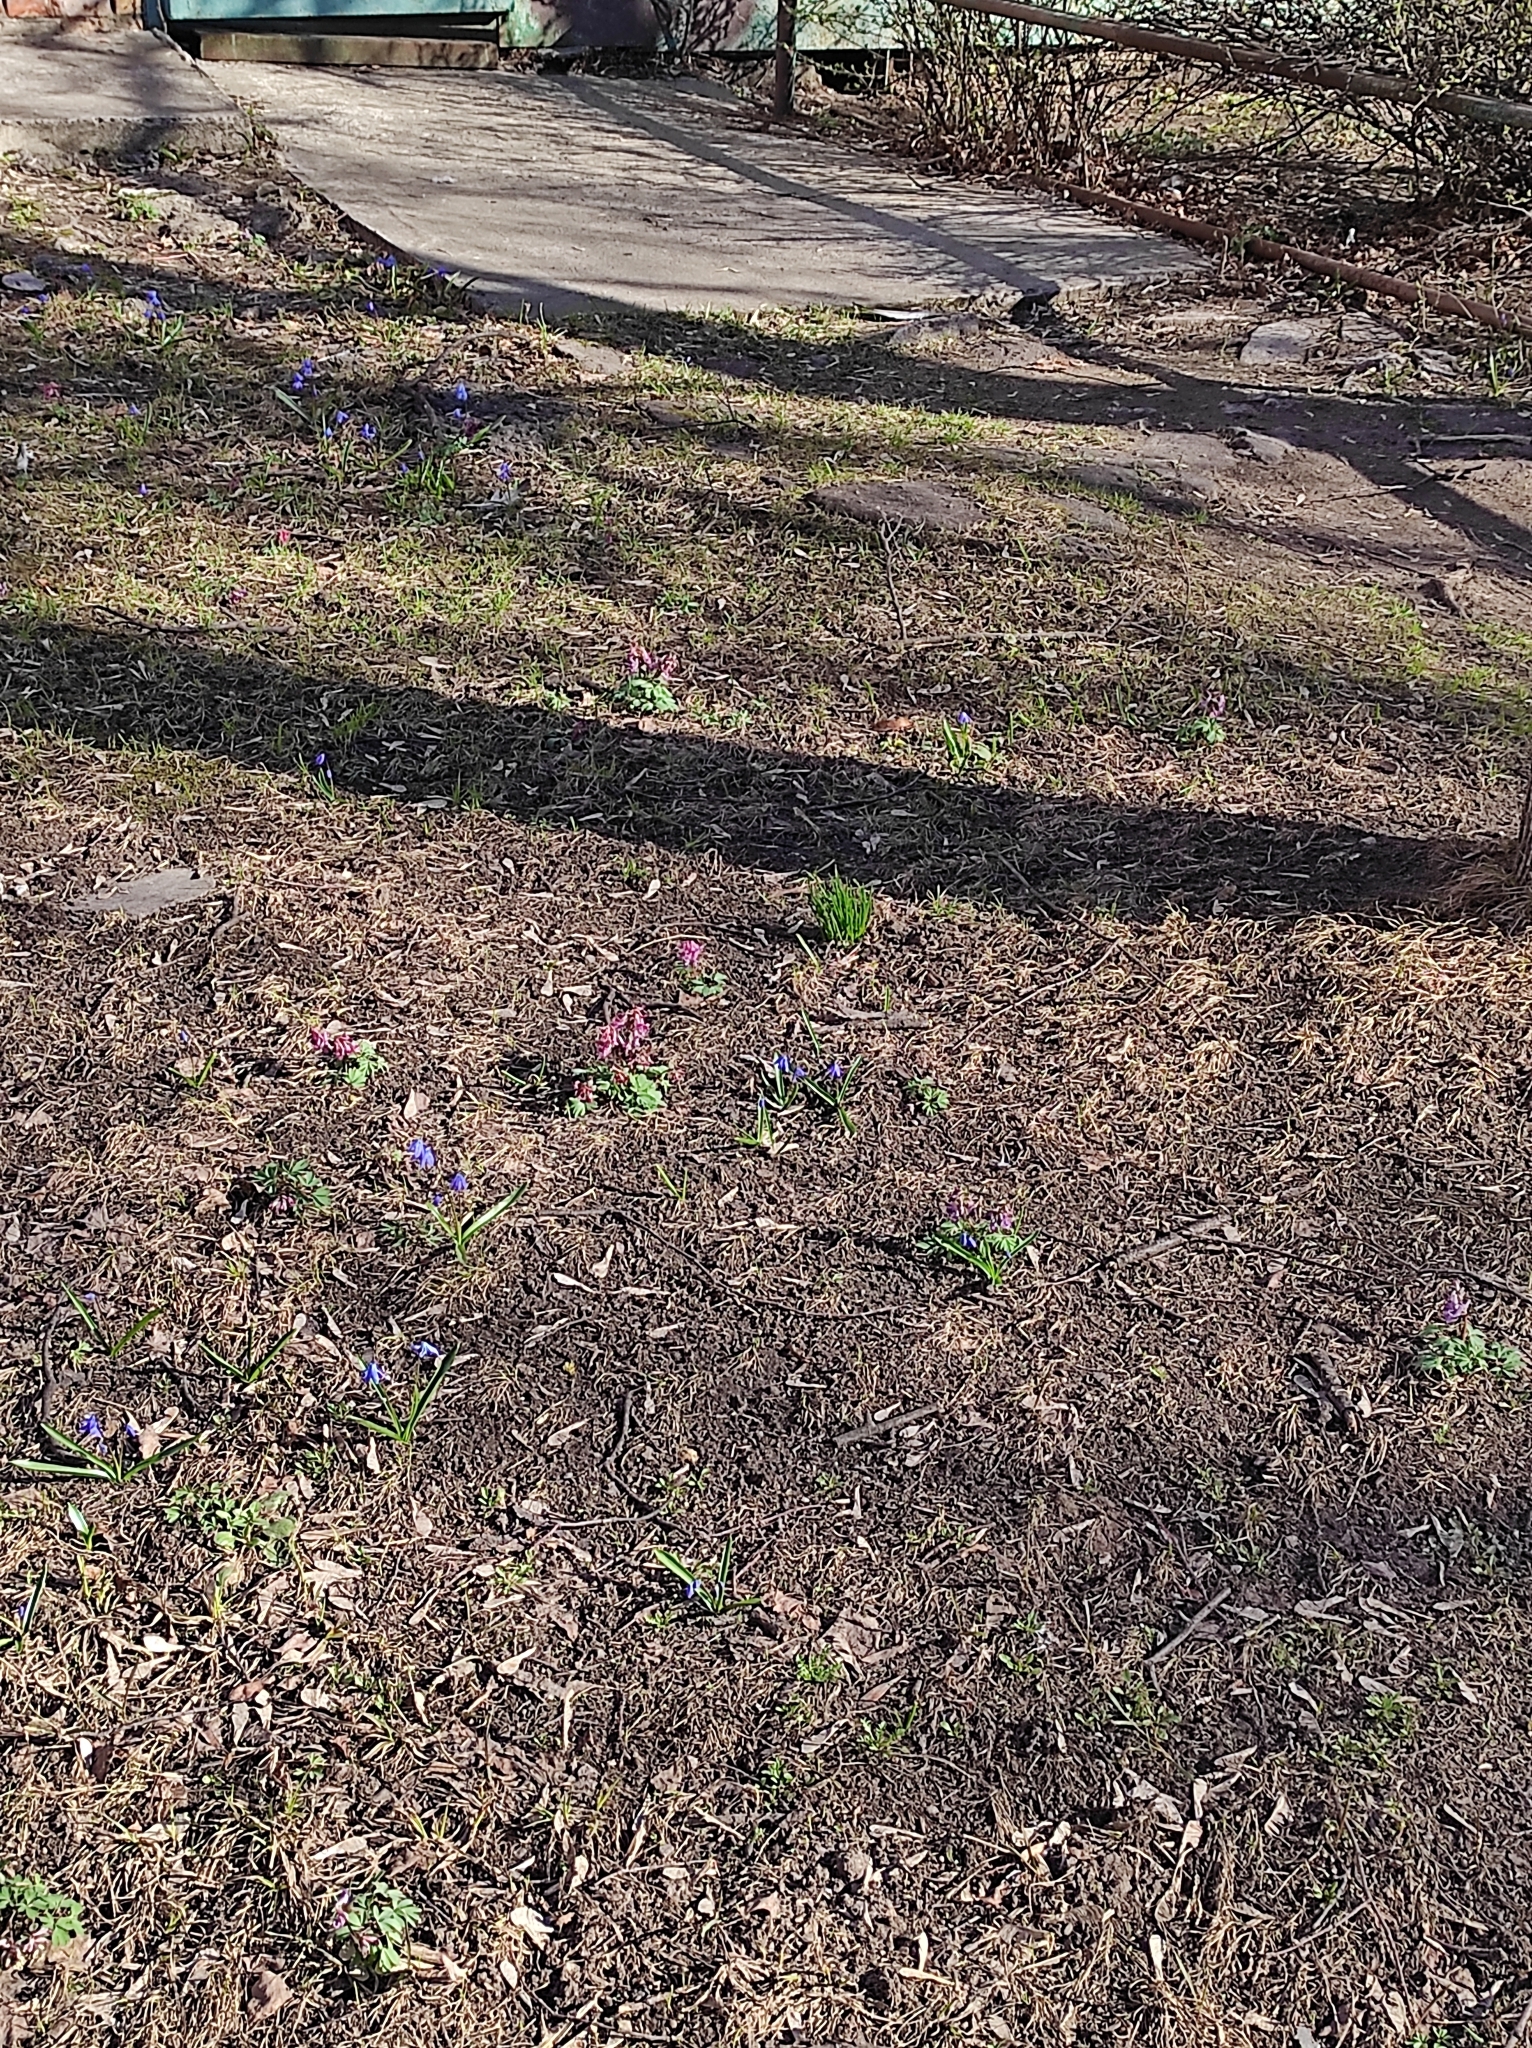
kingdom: Plantae
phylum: Tracheophyta
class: Magnoliopsida
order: Ranunculales
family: Papaveraceae
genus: Corydalis
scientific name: Corydalis solida
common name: Bird-in-a-bush
